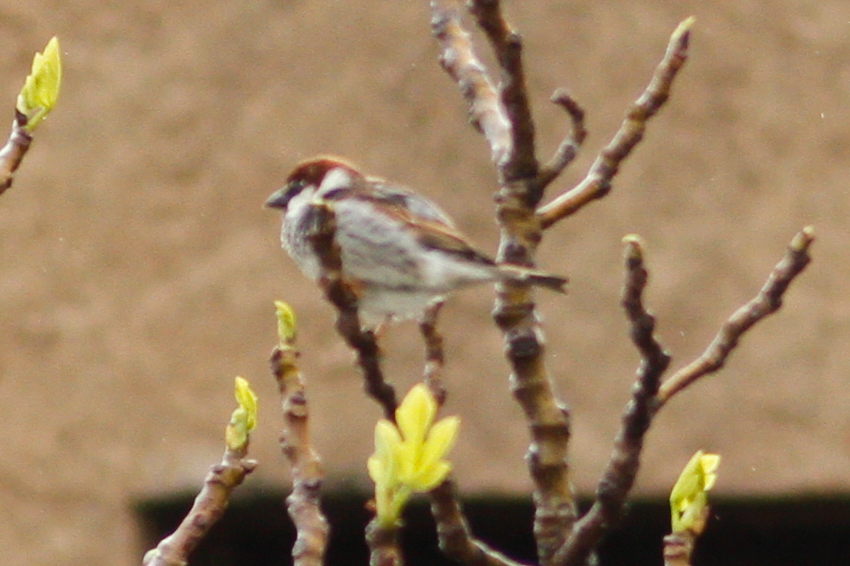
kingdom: Animalia
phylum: Chordata
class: Aves
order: Passeriformes
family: Passeridae
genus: Passer
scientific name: Passer hispaniolensis
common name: Spanish sparrow
